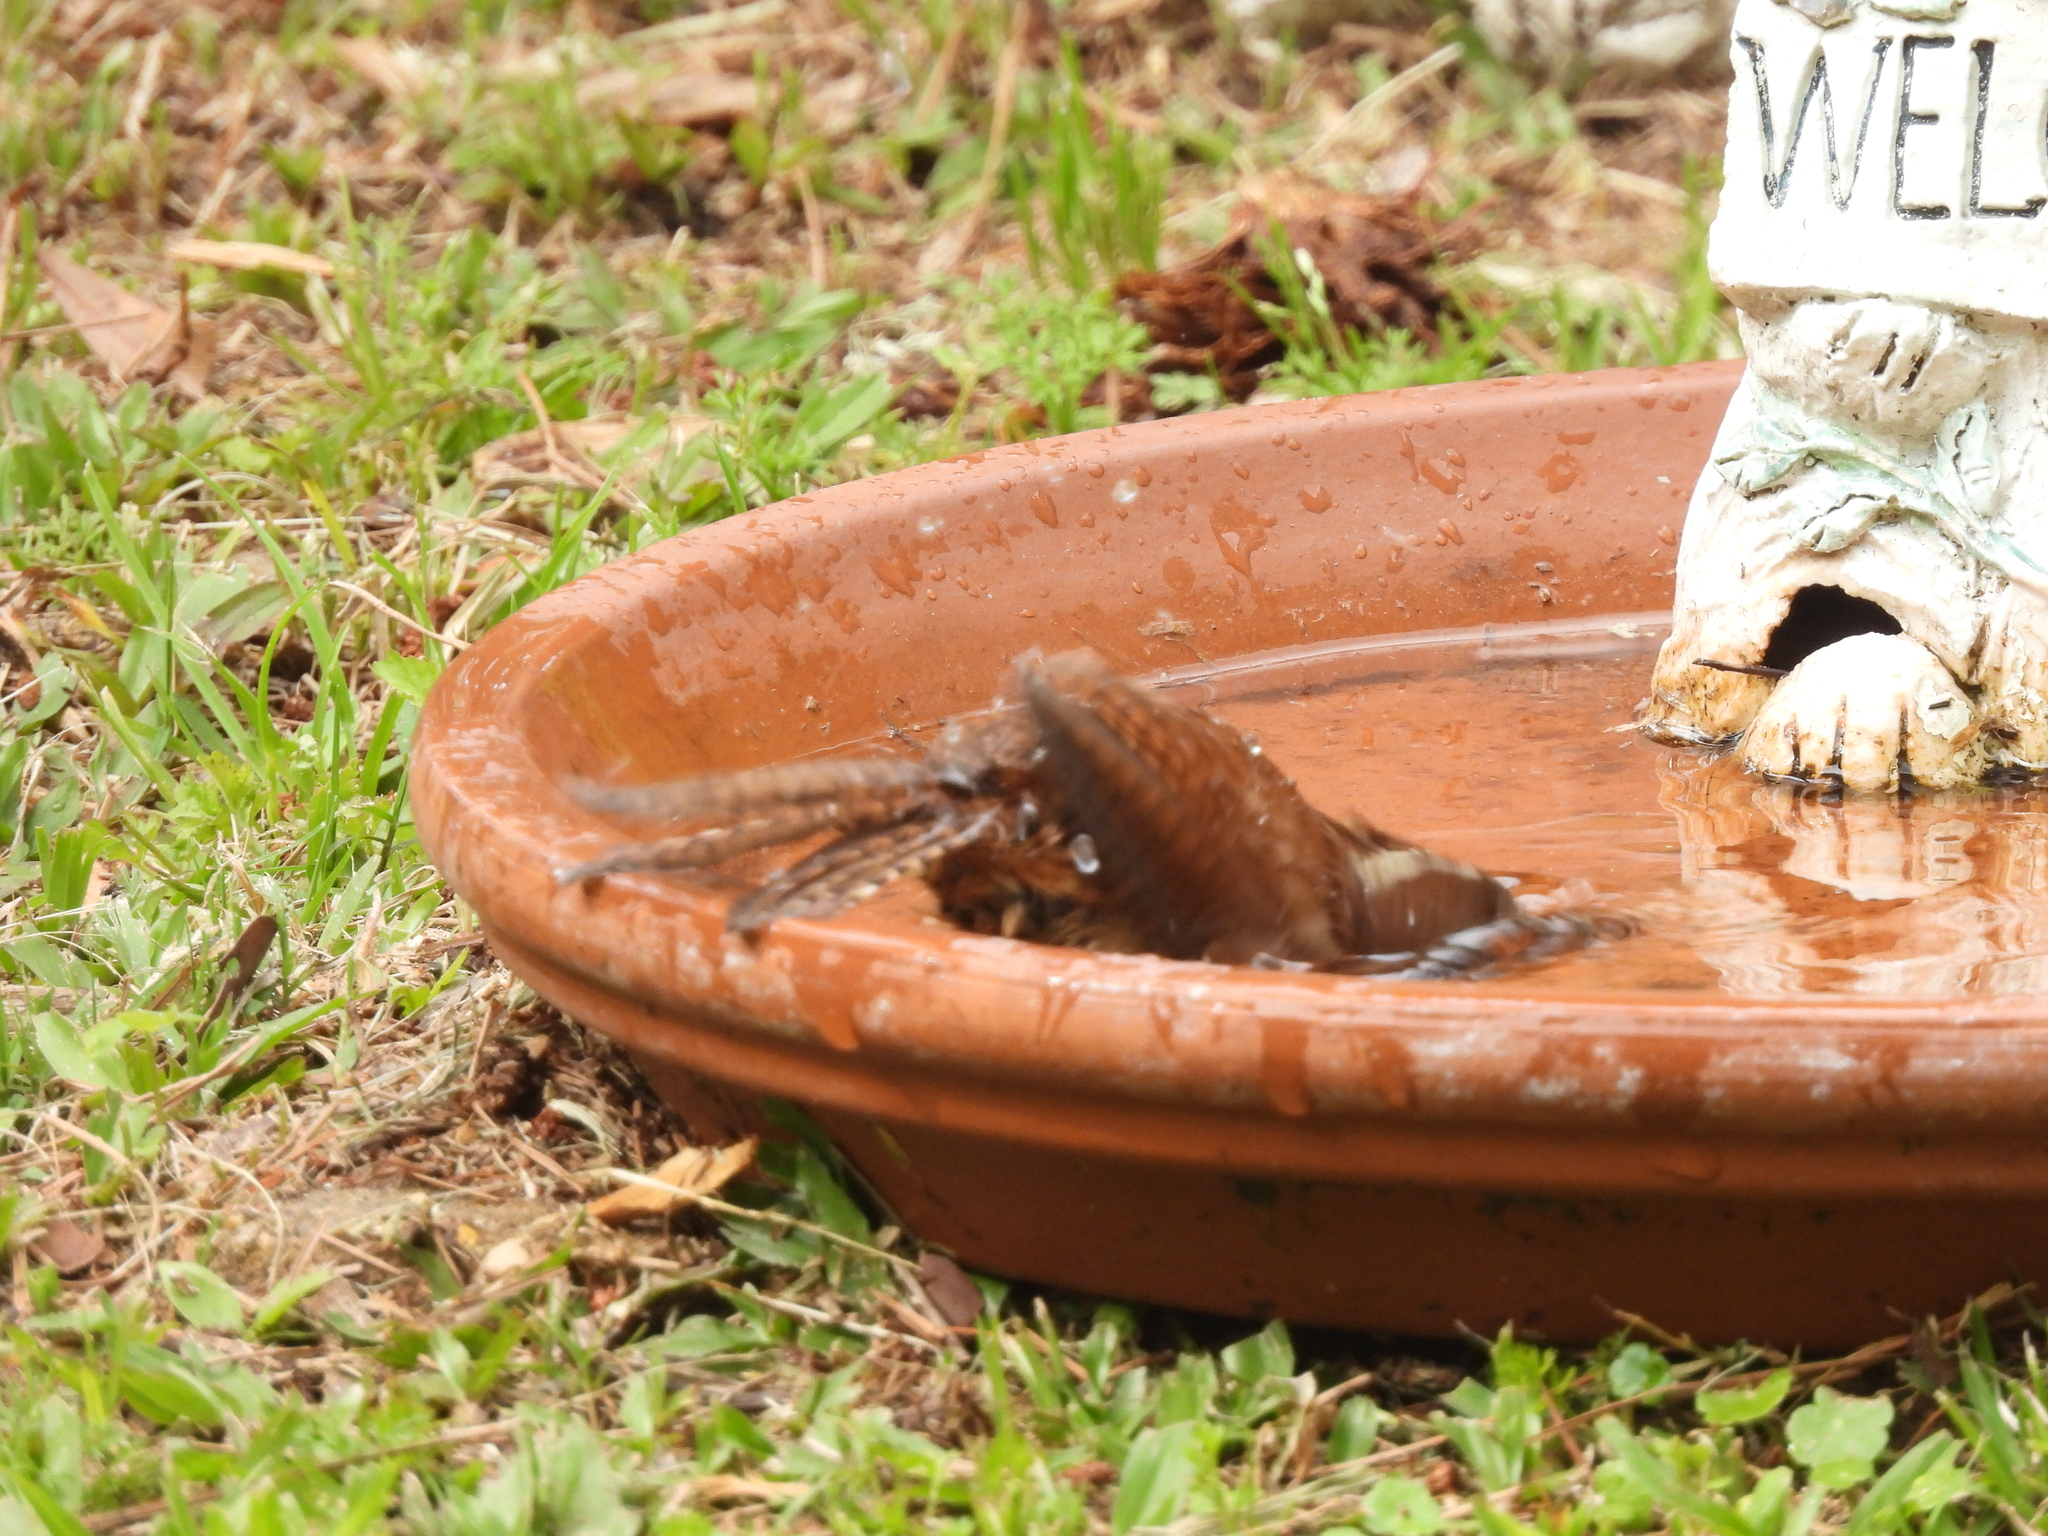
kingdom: Animalia
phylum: Chordata
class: Aves
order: Passeriformes
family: Troglodytidae
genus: Thryothorus
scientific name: Thryothorus ludovicianus
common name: Carolina wren
